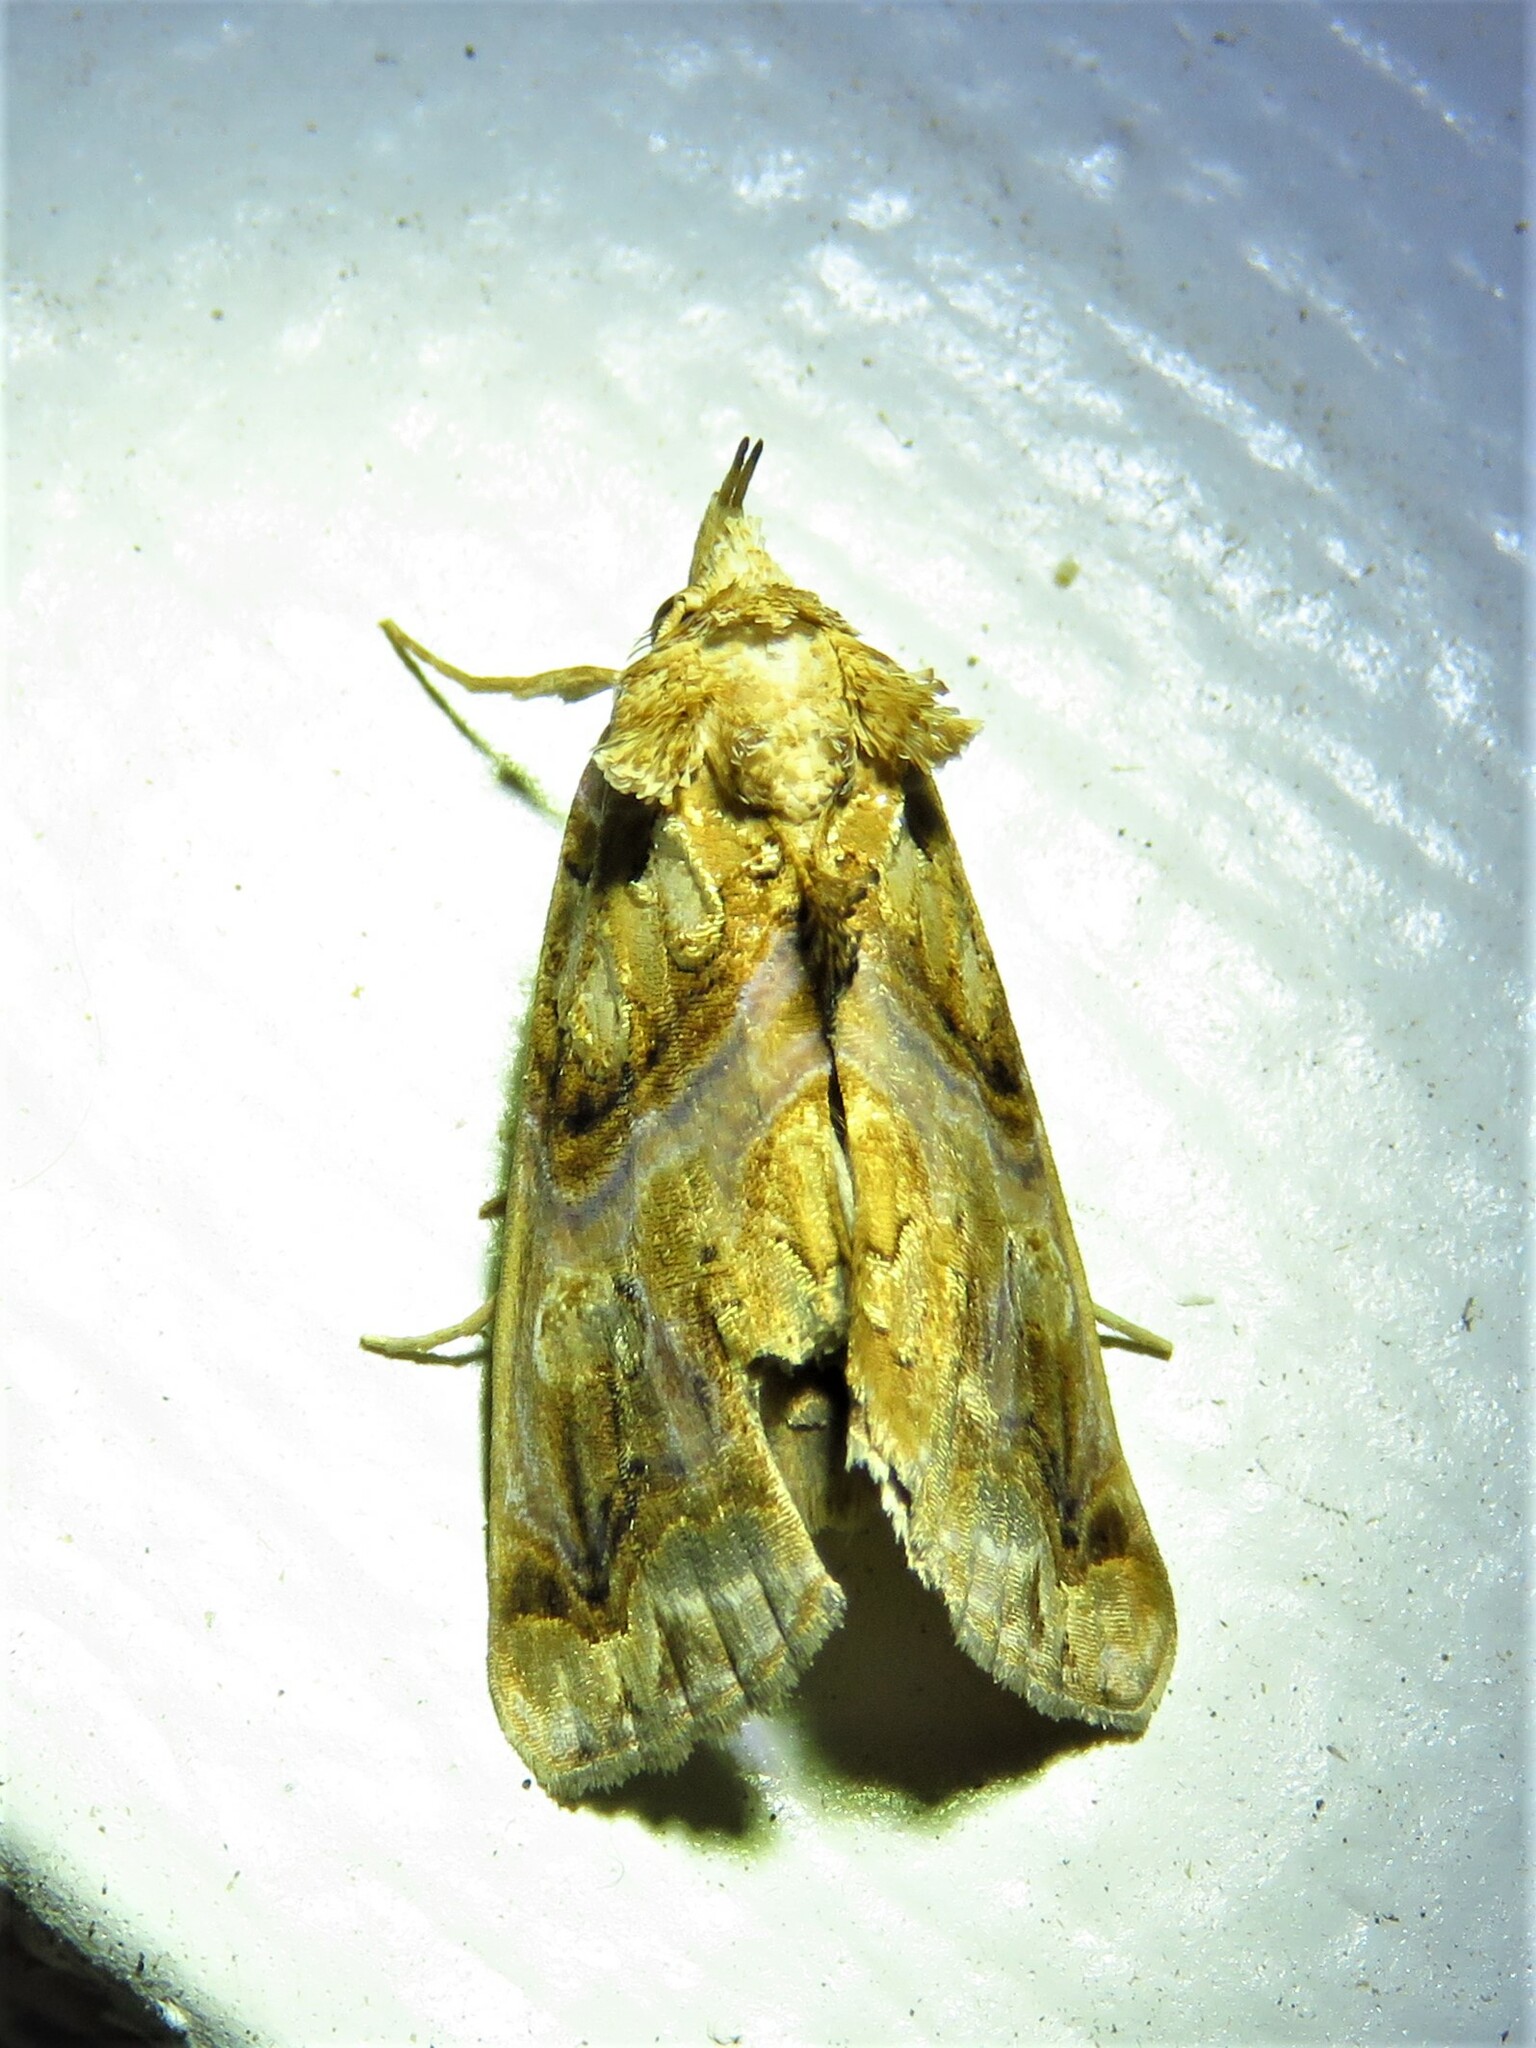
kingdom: Animalia
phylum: Arthropoda
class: Insecta
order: Lepidoptera
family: Erebidae
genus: Plusiodonta
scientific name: Plusiodonta compressipalpis
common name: Moonseed moth
